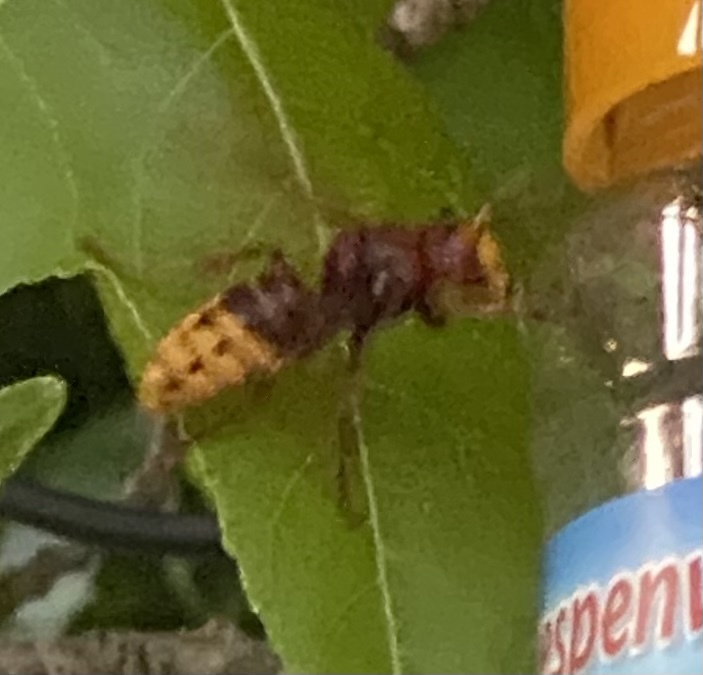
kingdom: Animalia
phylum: Arthropoda
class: Insecta
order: Hymenoptera
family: Vespidae
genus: Vespa
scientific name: Vespa crabro
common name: Hornet
